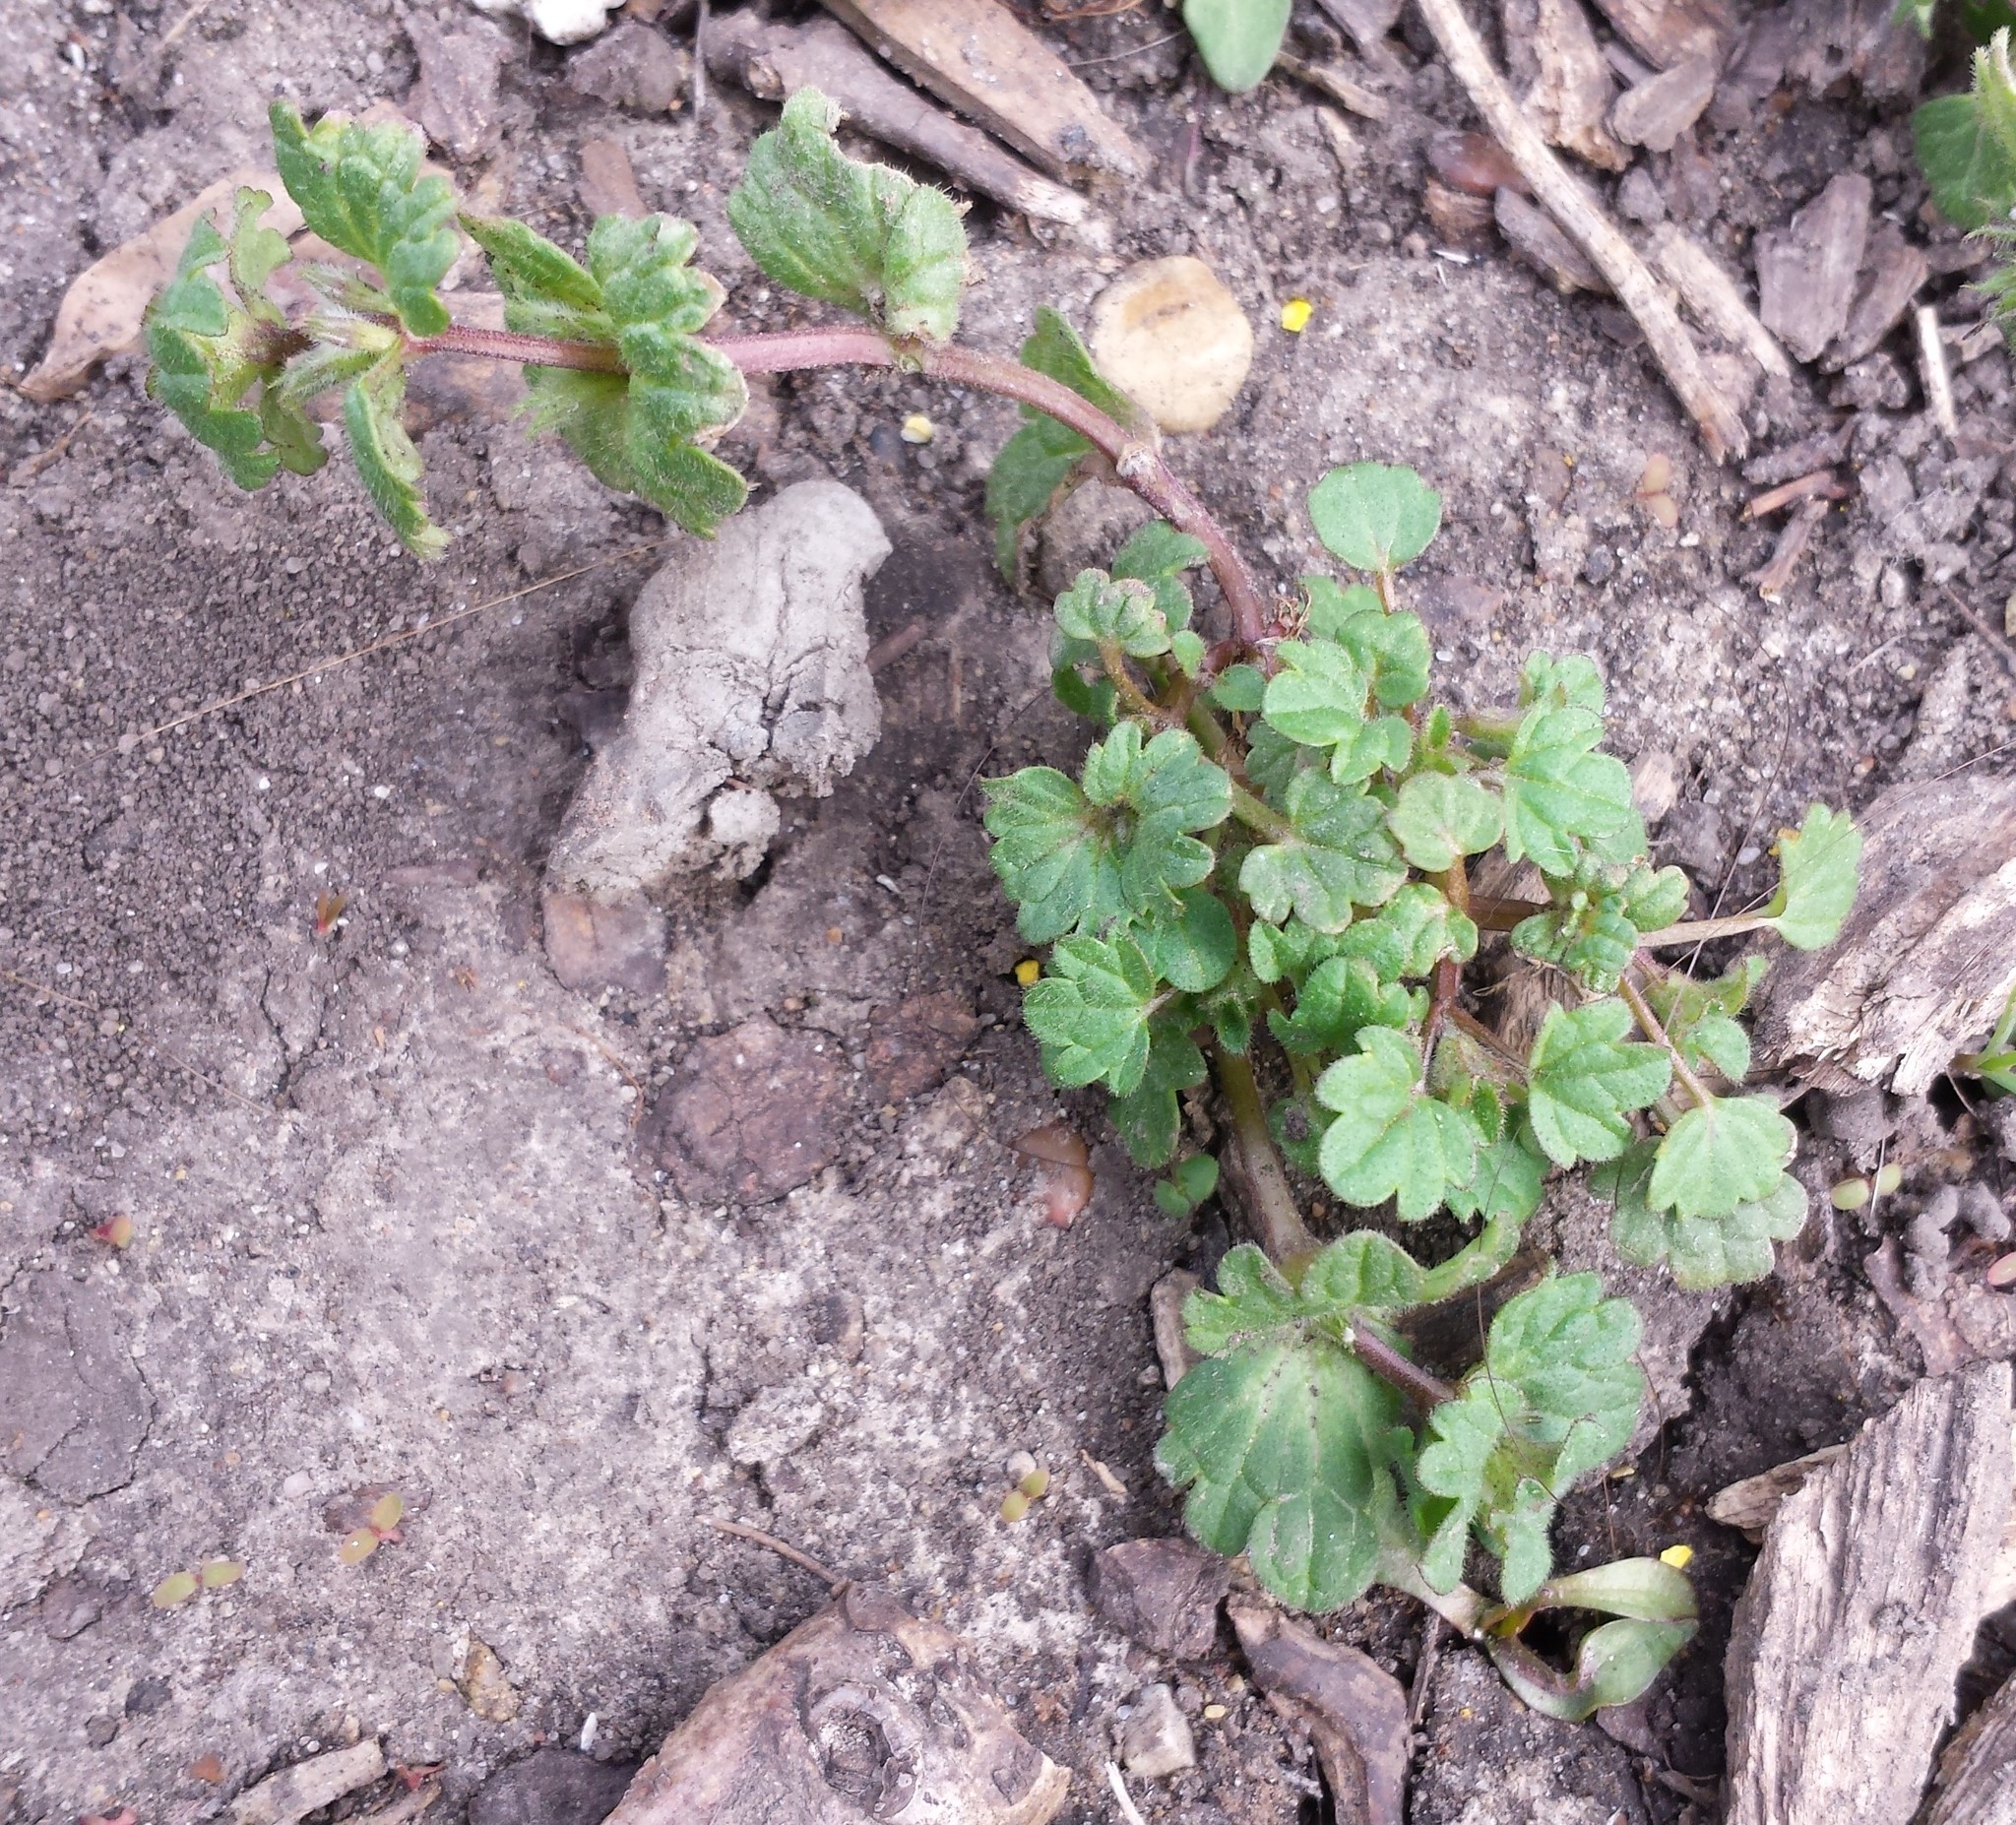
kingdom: Plantae
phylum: Tracheophyta
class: Magnoliopsida
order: Lamiales
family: Lamiaceae
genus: Lamium
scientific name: Lamium amplexicaule
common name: Henbit dead-nettle
